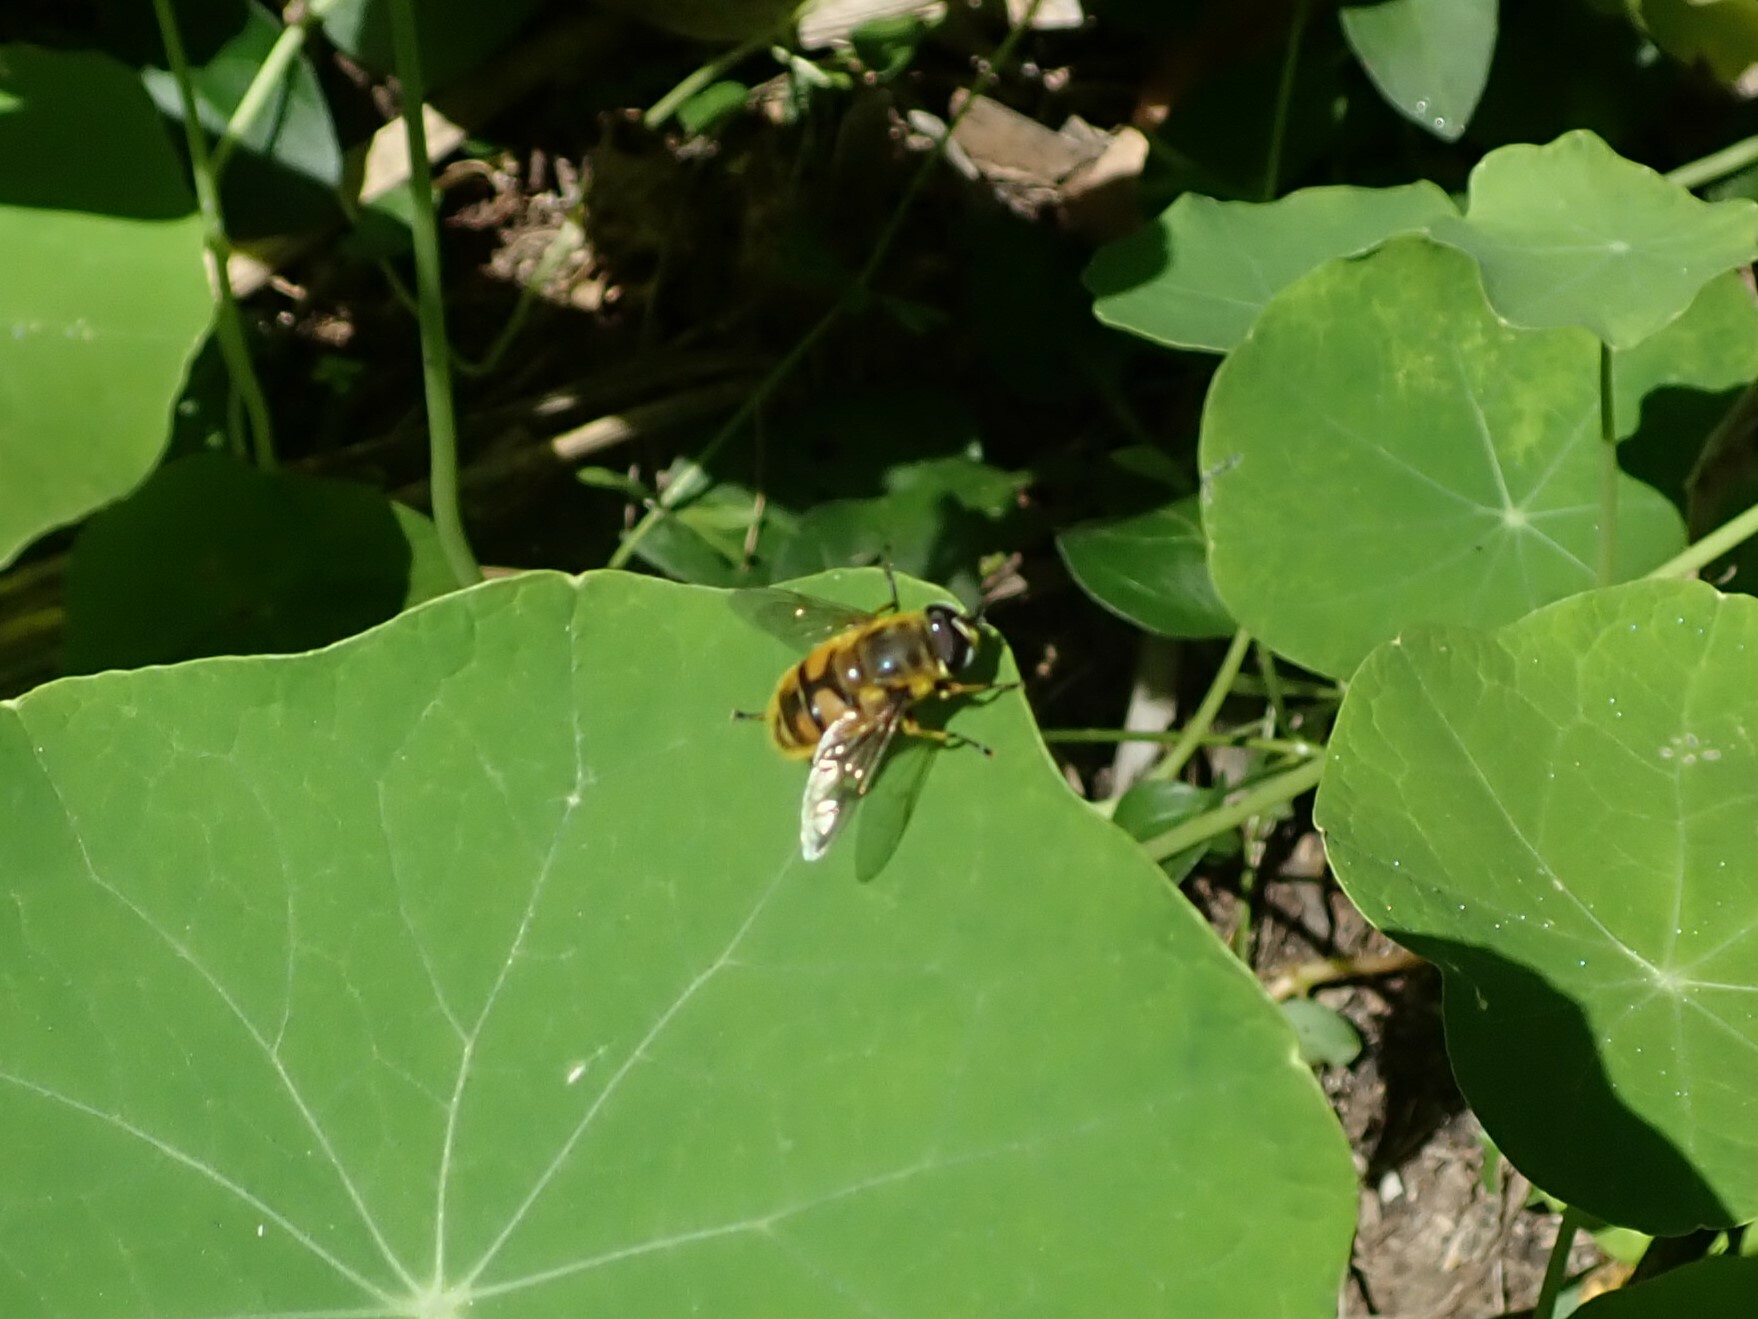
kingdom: Animalia
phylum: Arthropoda
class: Insecta
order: Diptera
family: Syrphidae
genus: Myathropa
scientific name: Myathropa florea
